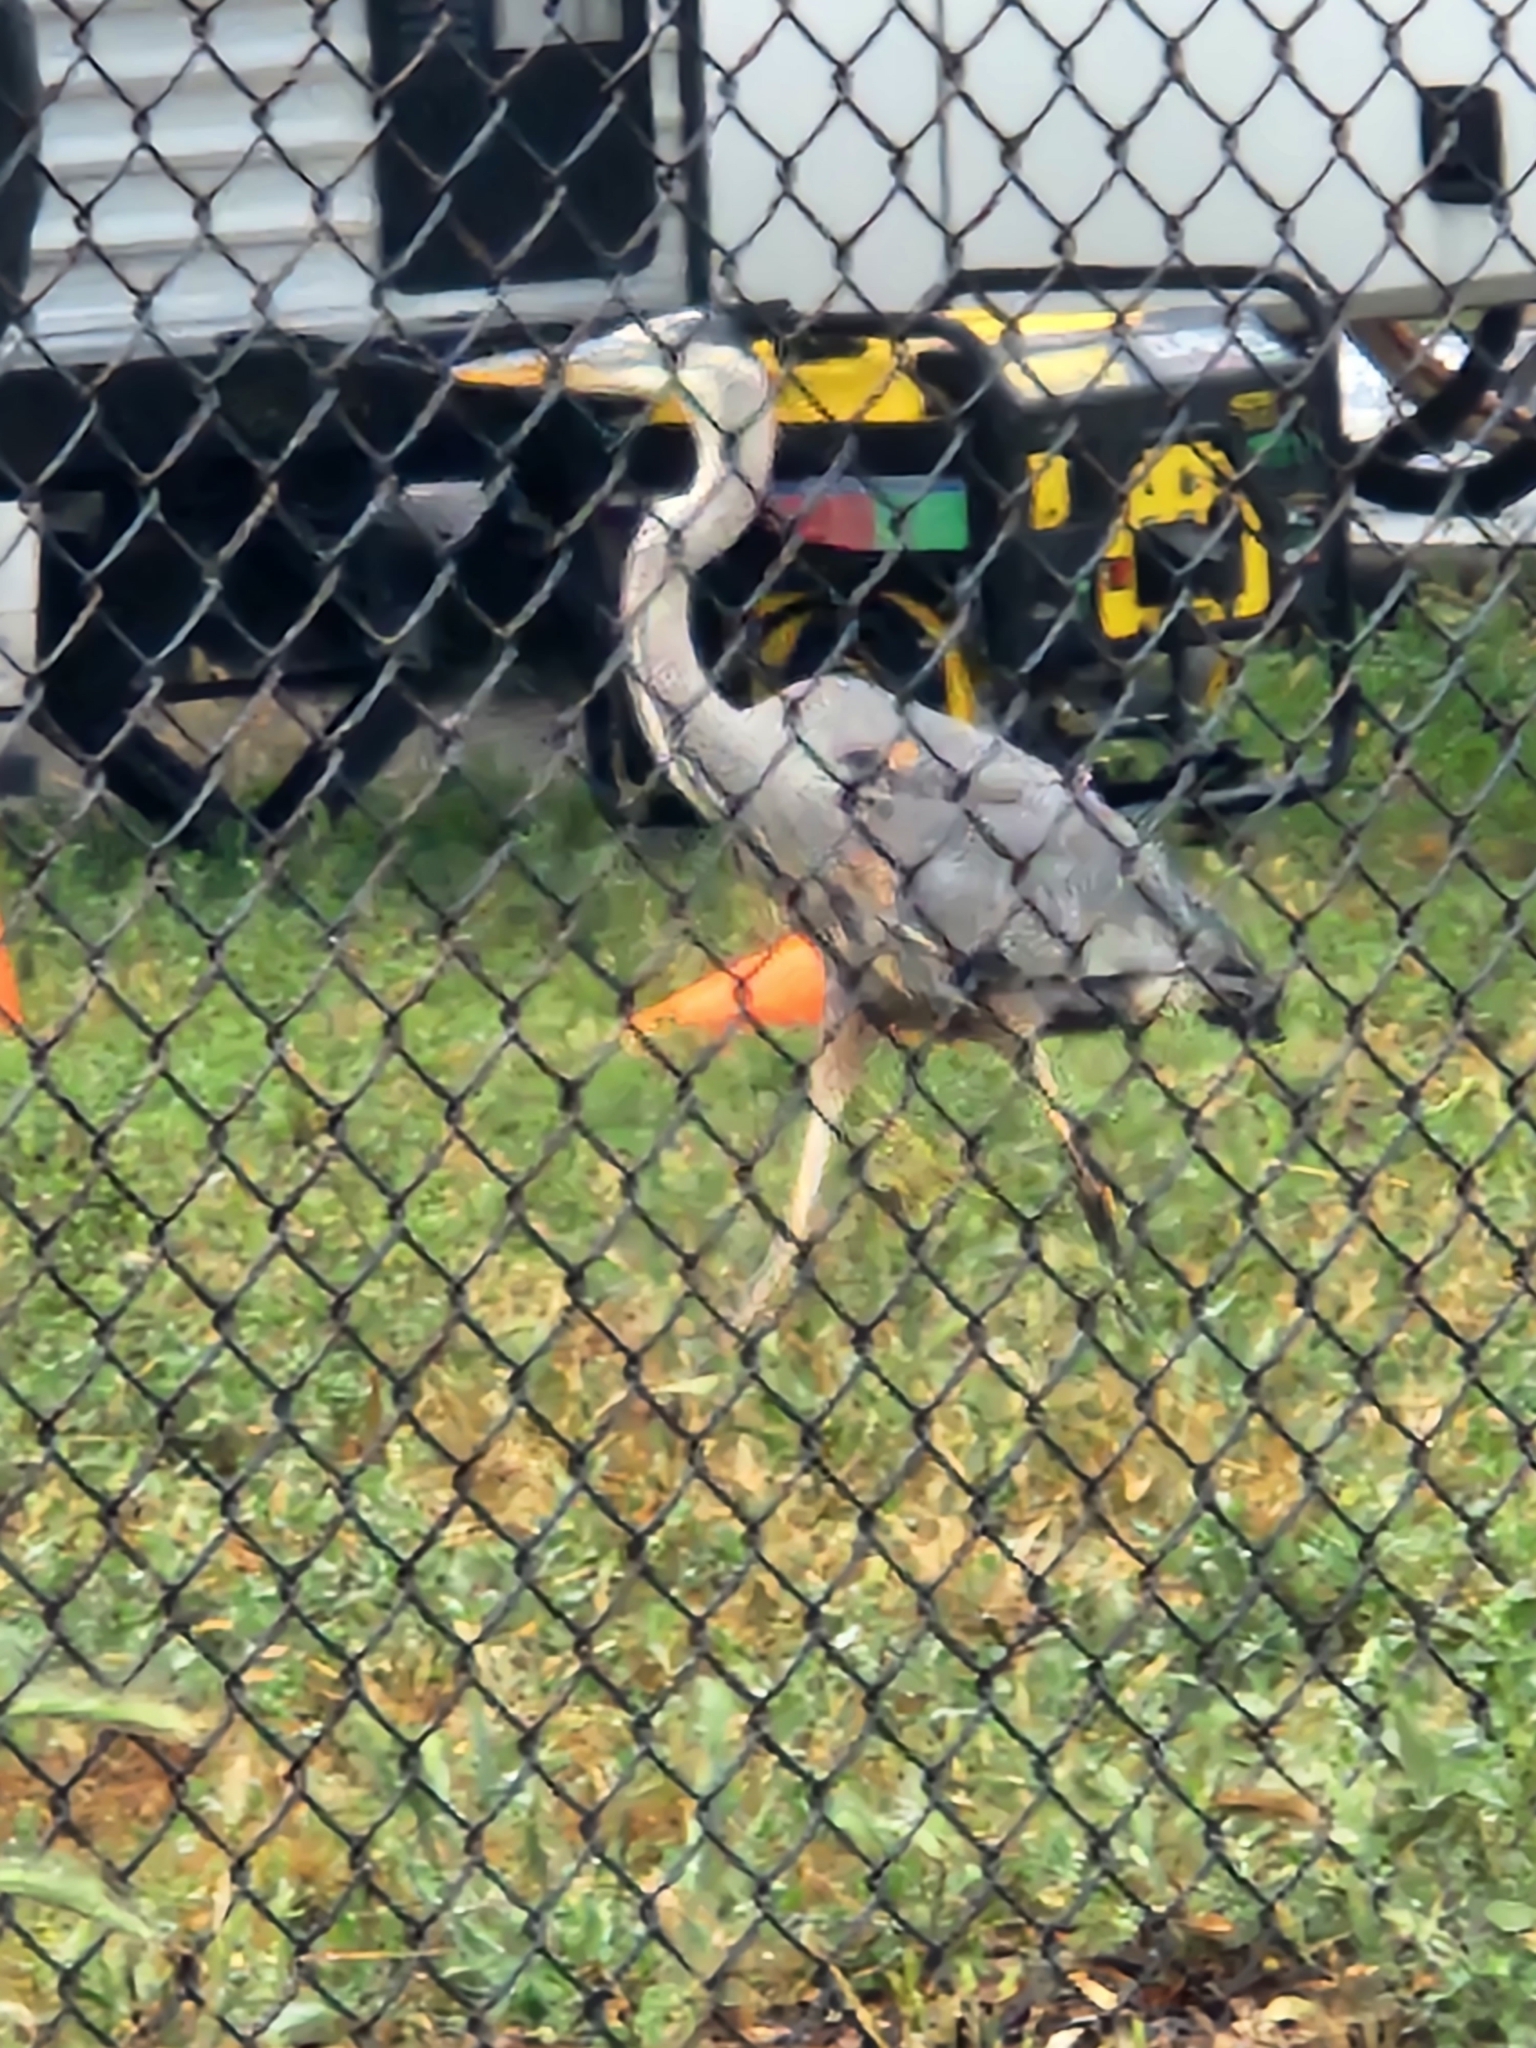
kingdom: Animalia
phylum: Chordata
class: Aves
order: Pelecaniformes
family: Ardeidae
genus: Ardea
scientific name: Ardea herodias
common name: Great blue heron
